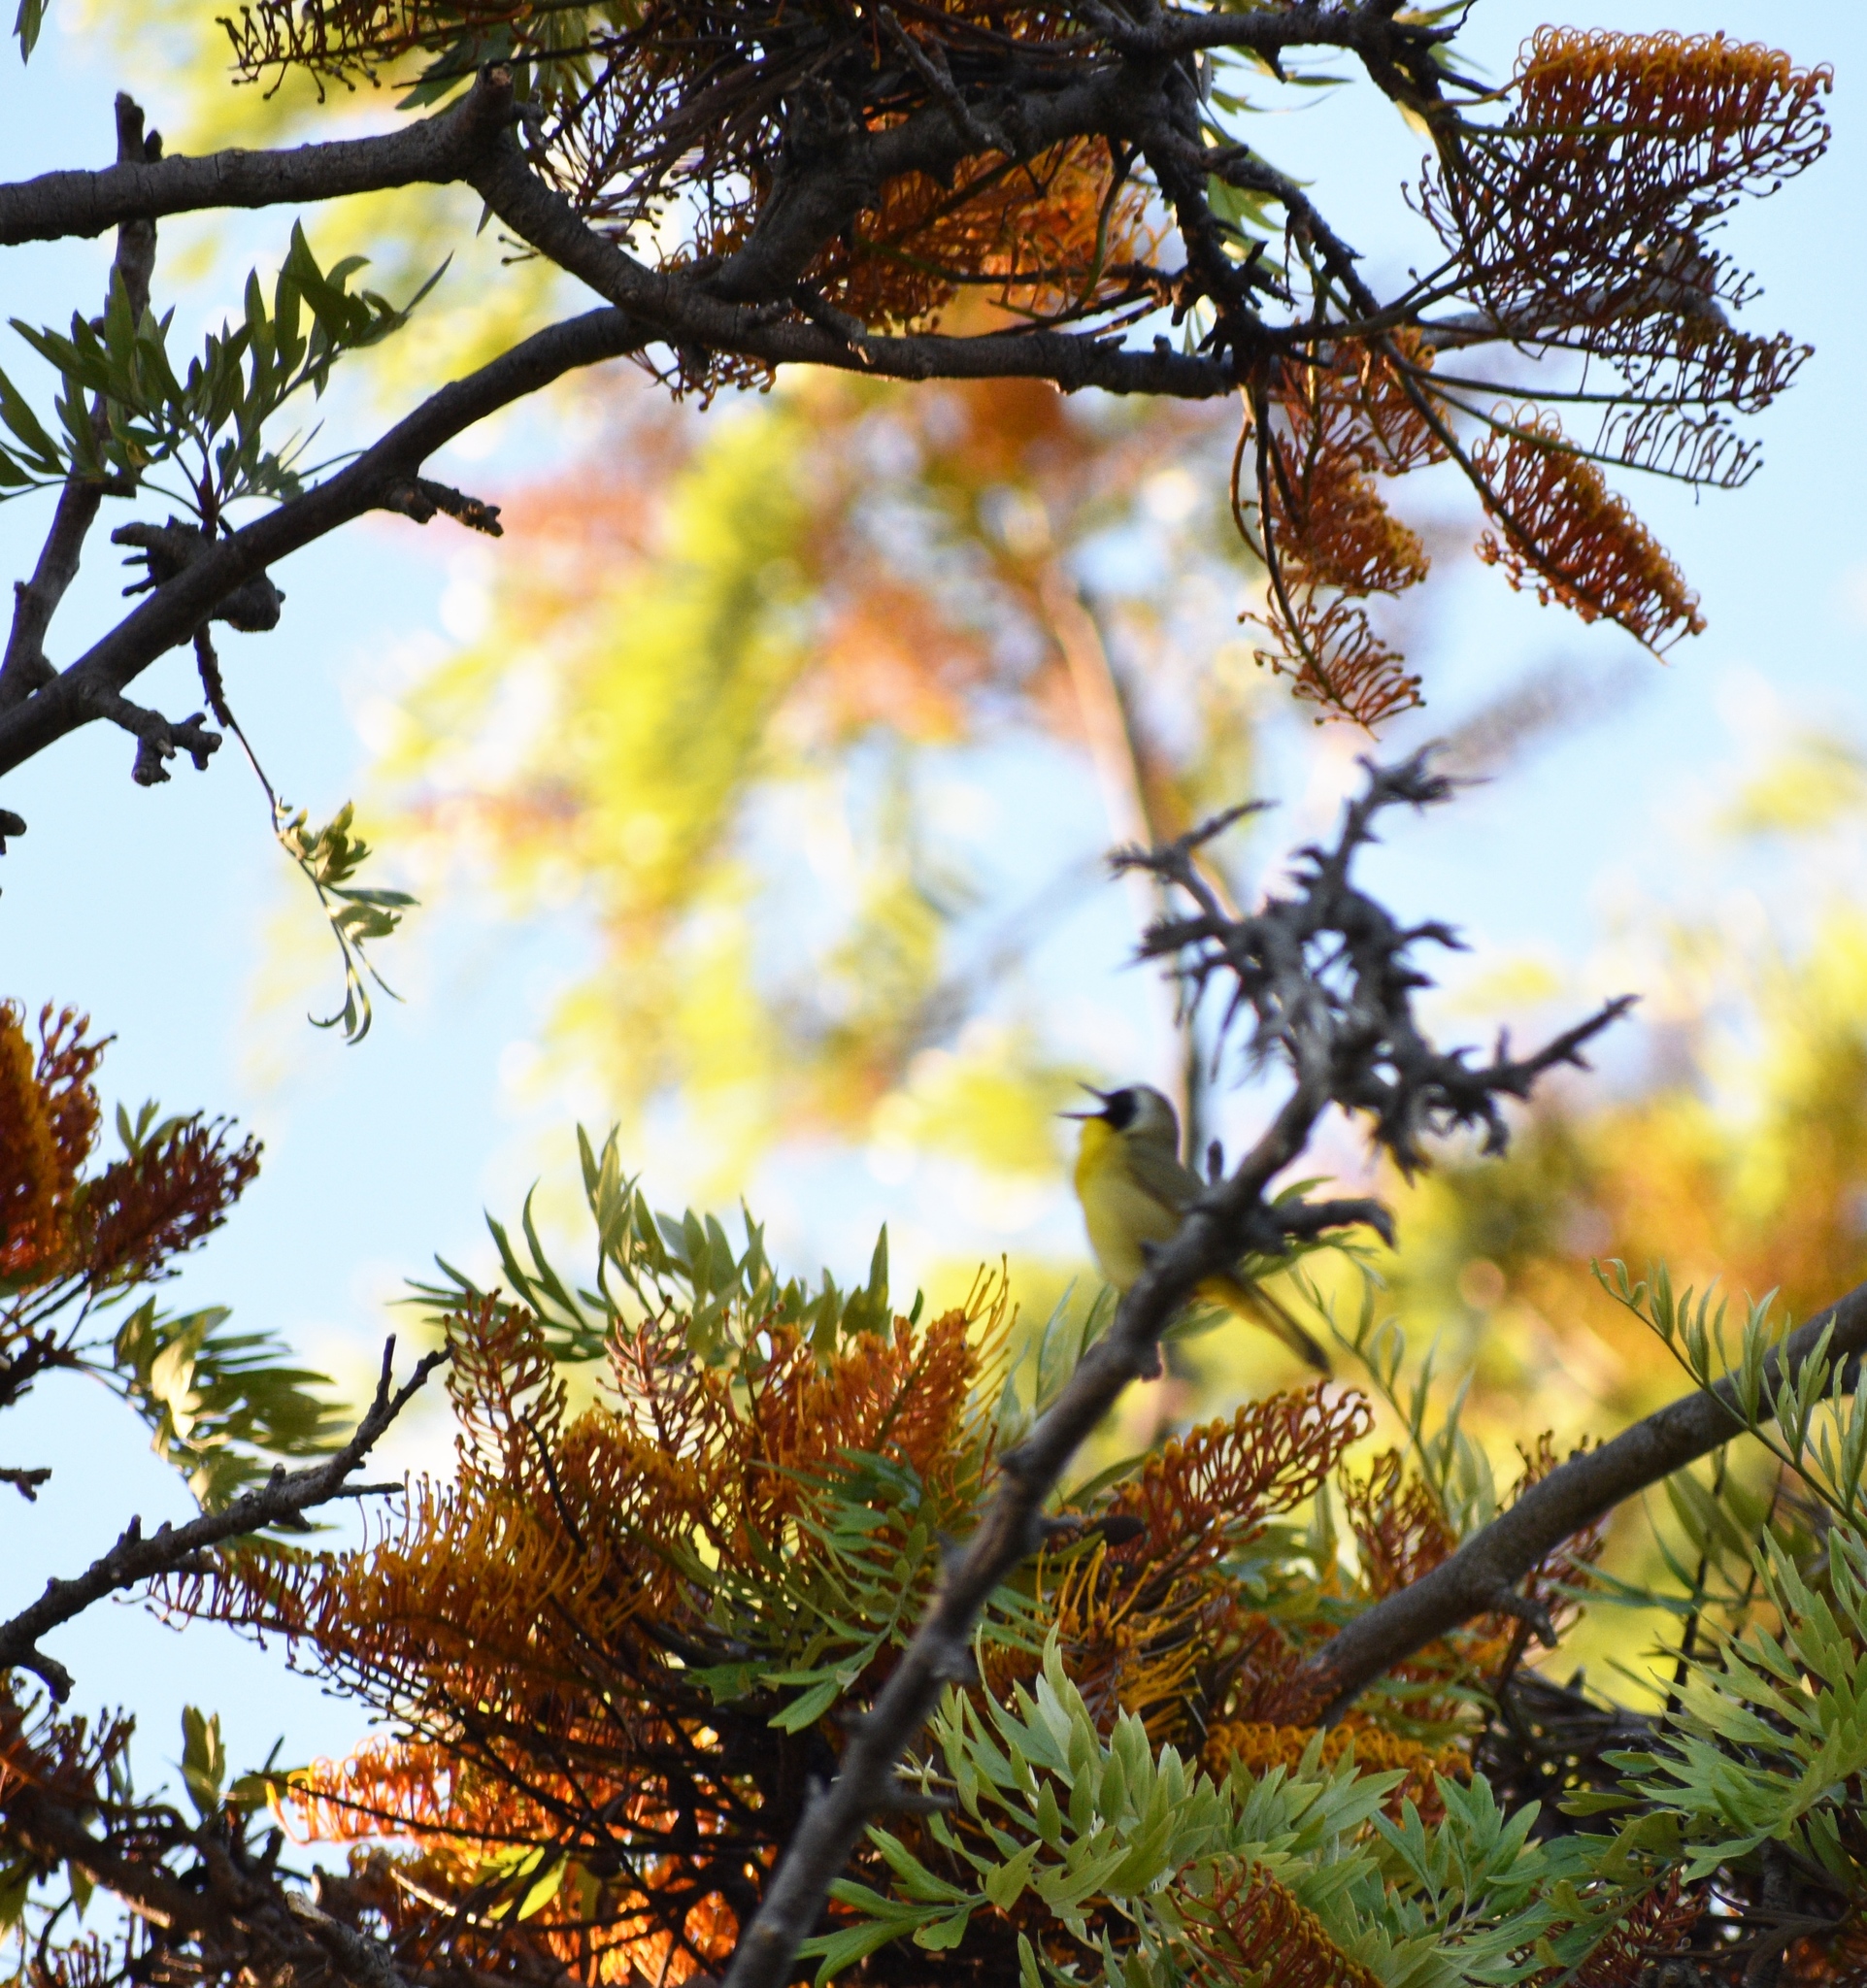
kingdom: Animalia
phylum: Chordata
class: Aves
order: Passeriformes
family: Parulidae
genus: Geothlypis
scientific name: Geothlypis trichas
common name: Common yellowthroat
